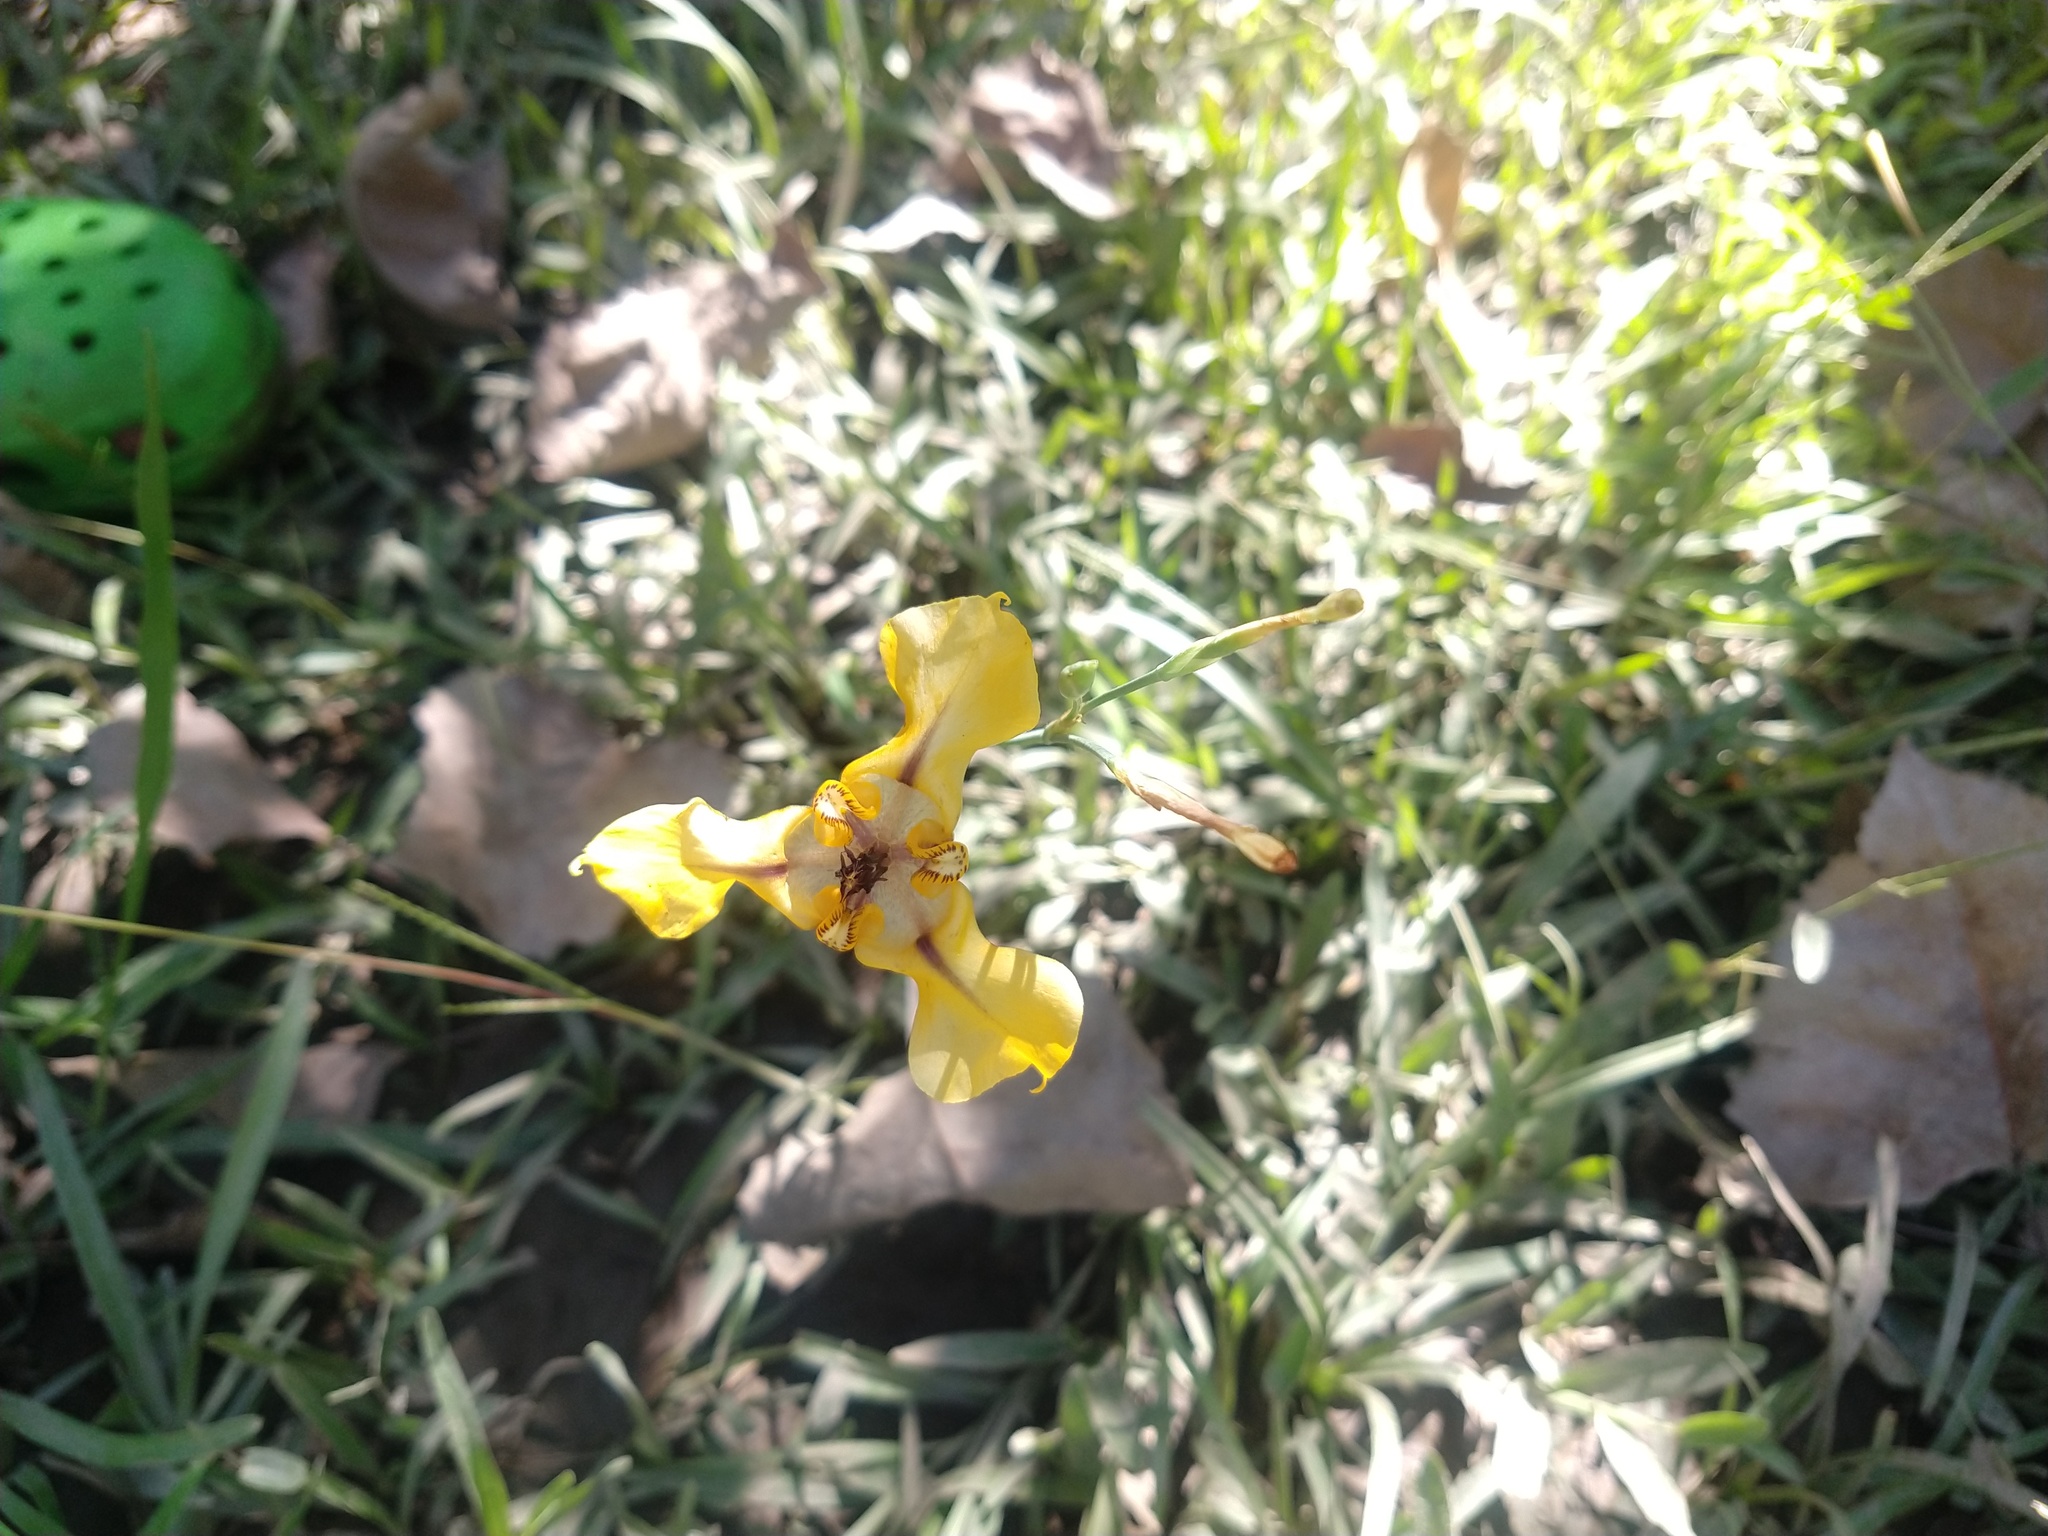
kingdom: Plantae
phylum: Tracheophyta
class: Liliopsida
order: Asparagales
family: Iridaceae
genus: Cypella
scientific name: Cypella herbertii
